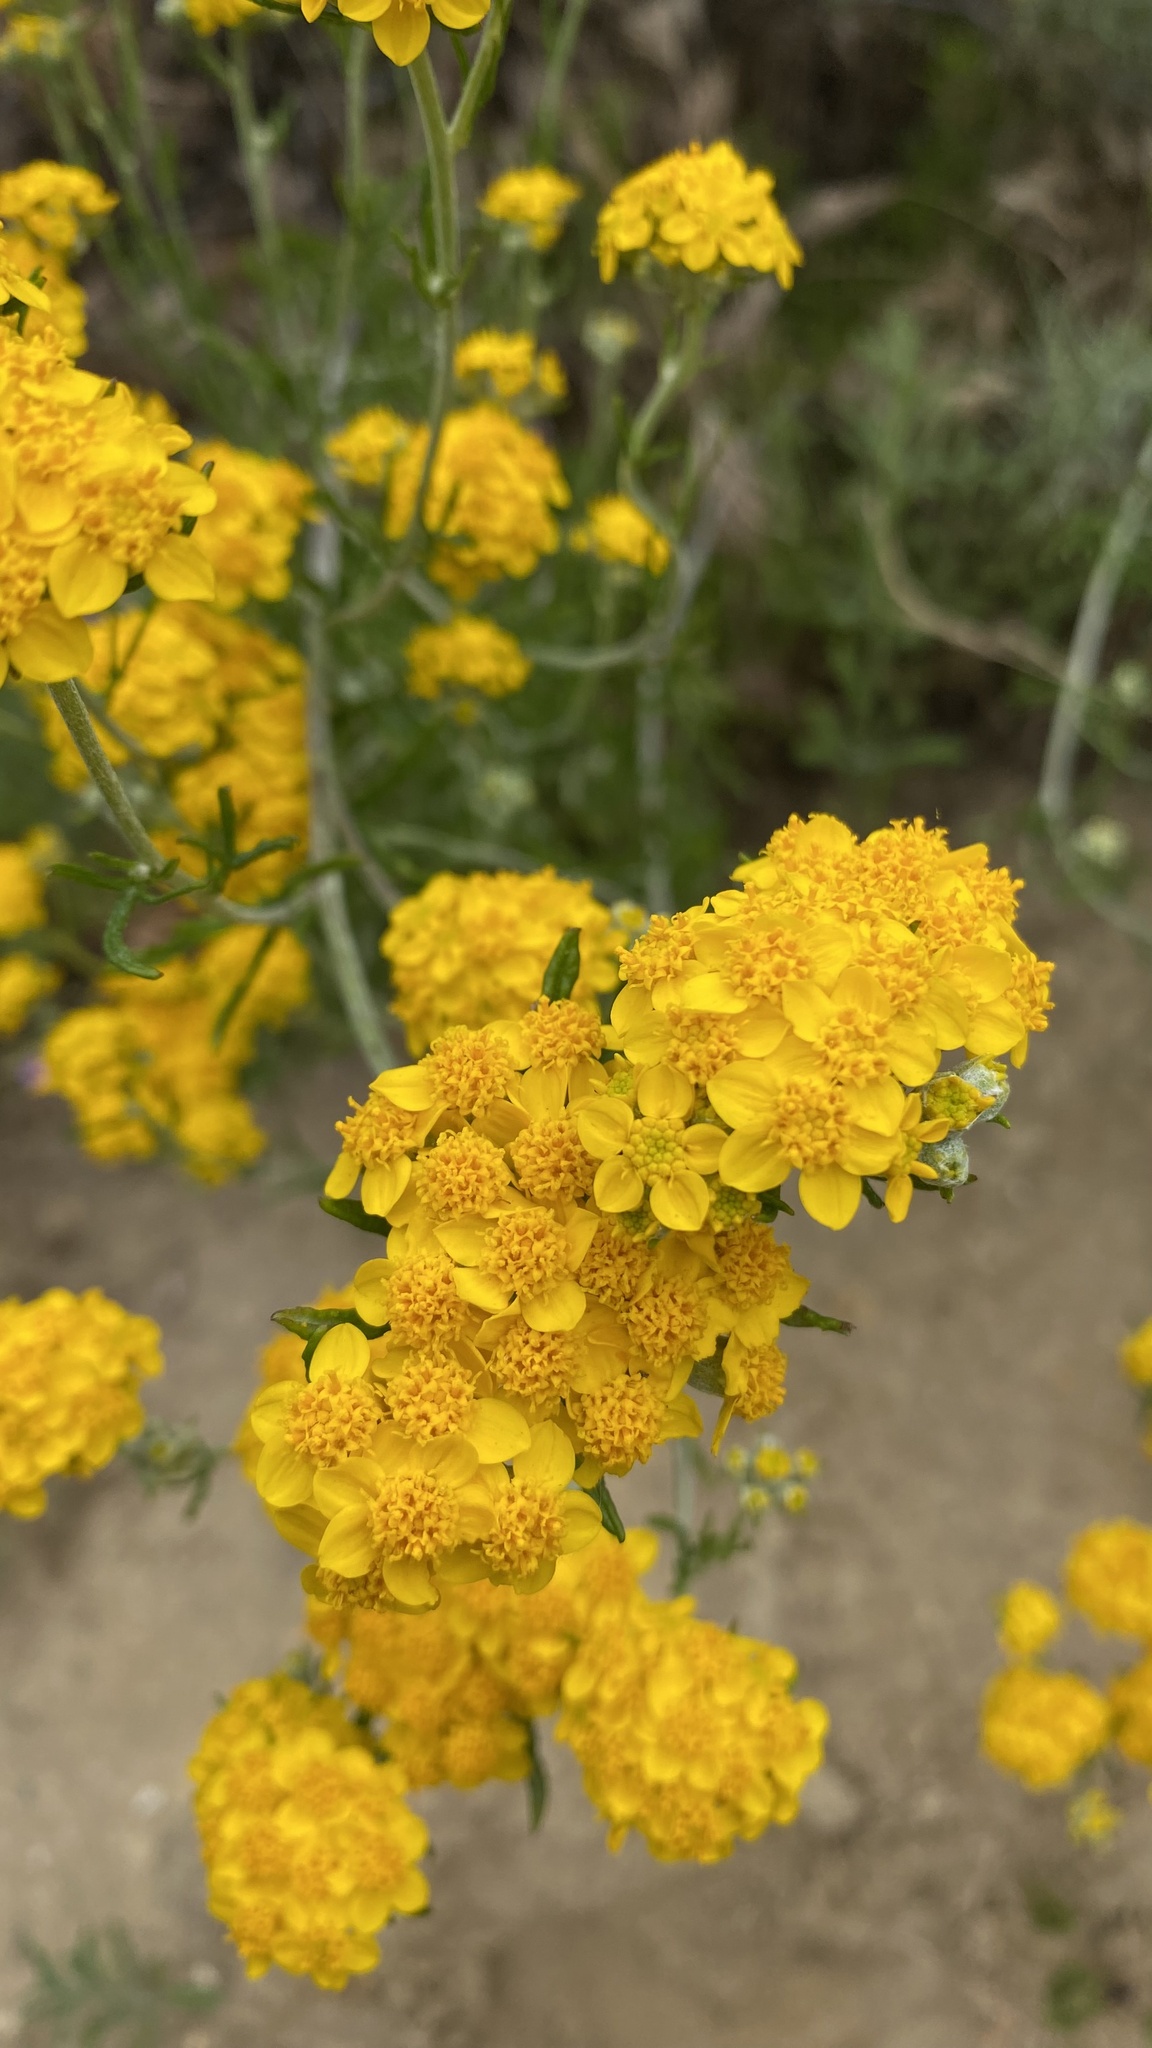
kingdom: Plantae
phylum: Tracheophyta
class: Magnoliopsida
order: Asterales
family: Asteraceae
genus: Eriophyllum
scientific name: Eriophyllum confertiflorum
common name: Golden-yarrow
